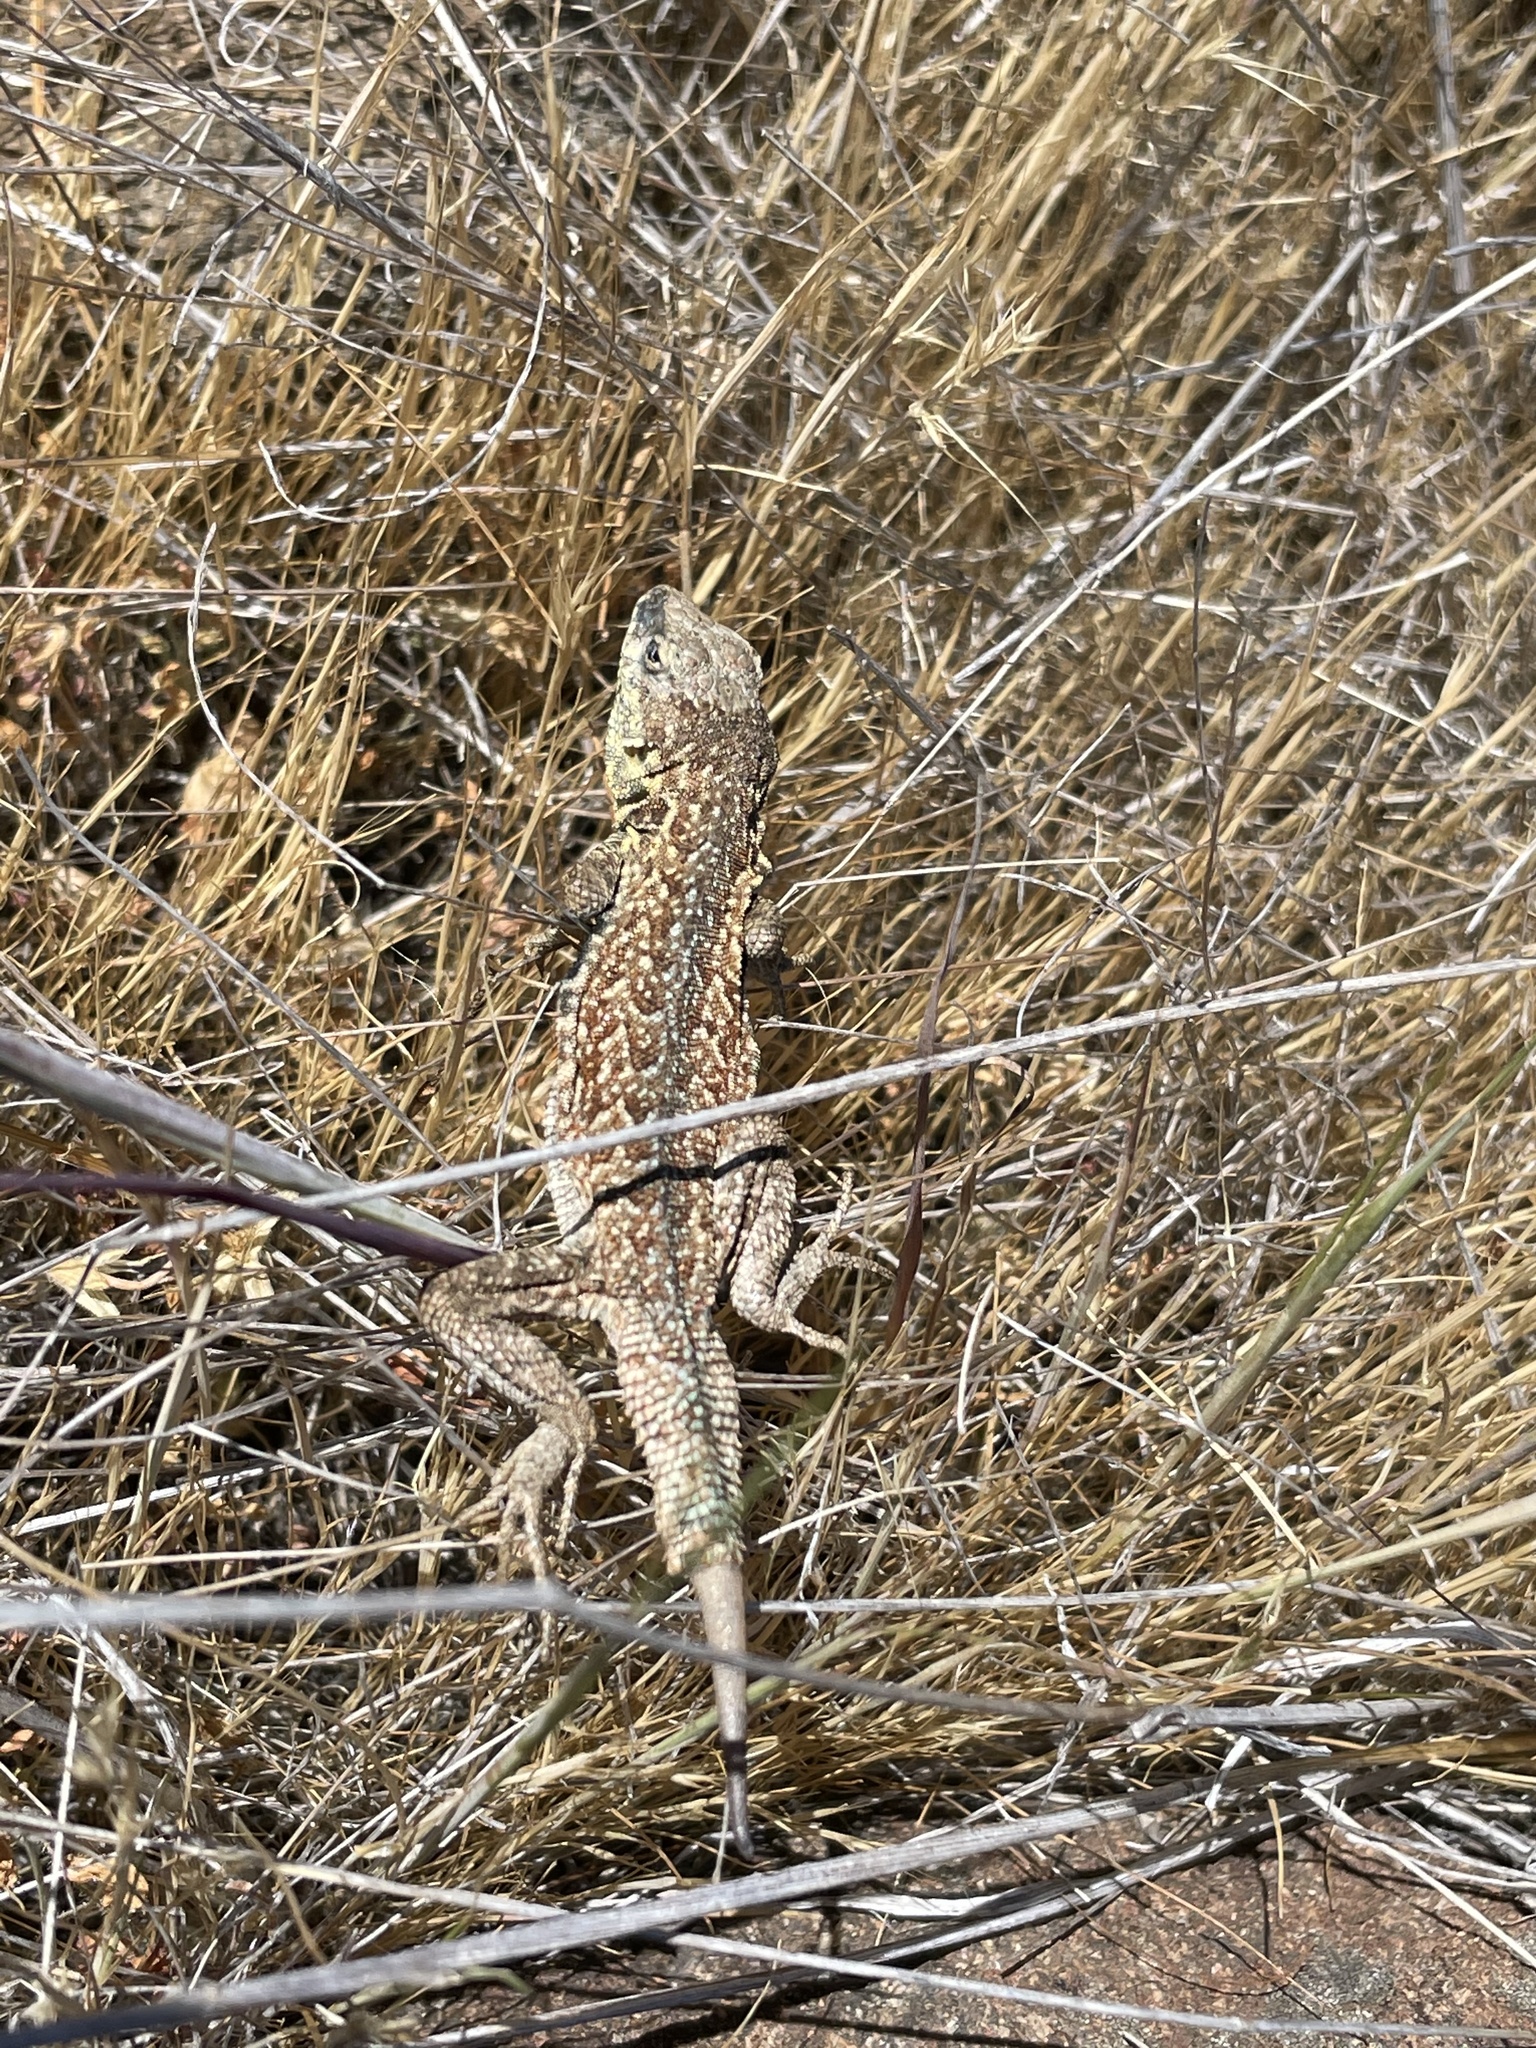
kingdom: Animalia
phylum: Chordata
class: Squamata
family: Phrynosomatidae
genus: Uta
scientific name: Uta stansburiana
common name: Side-blotched lizard
